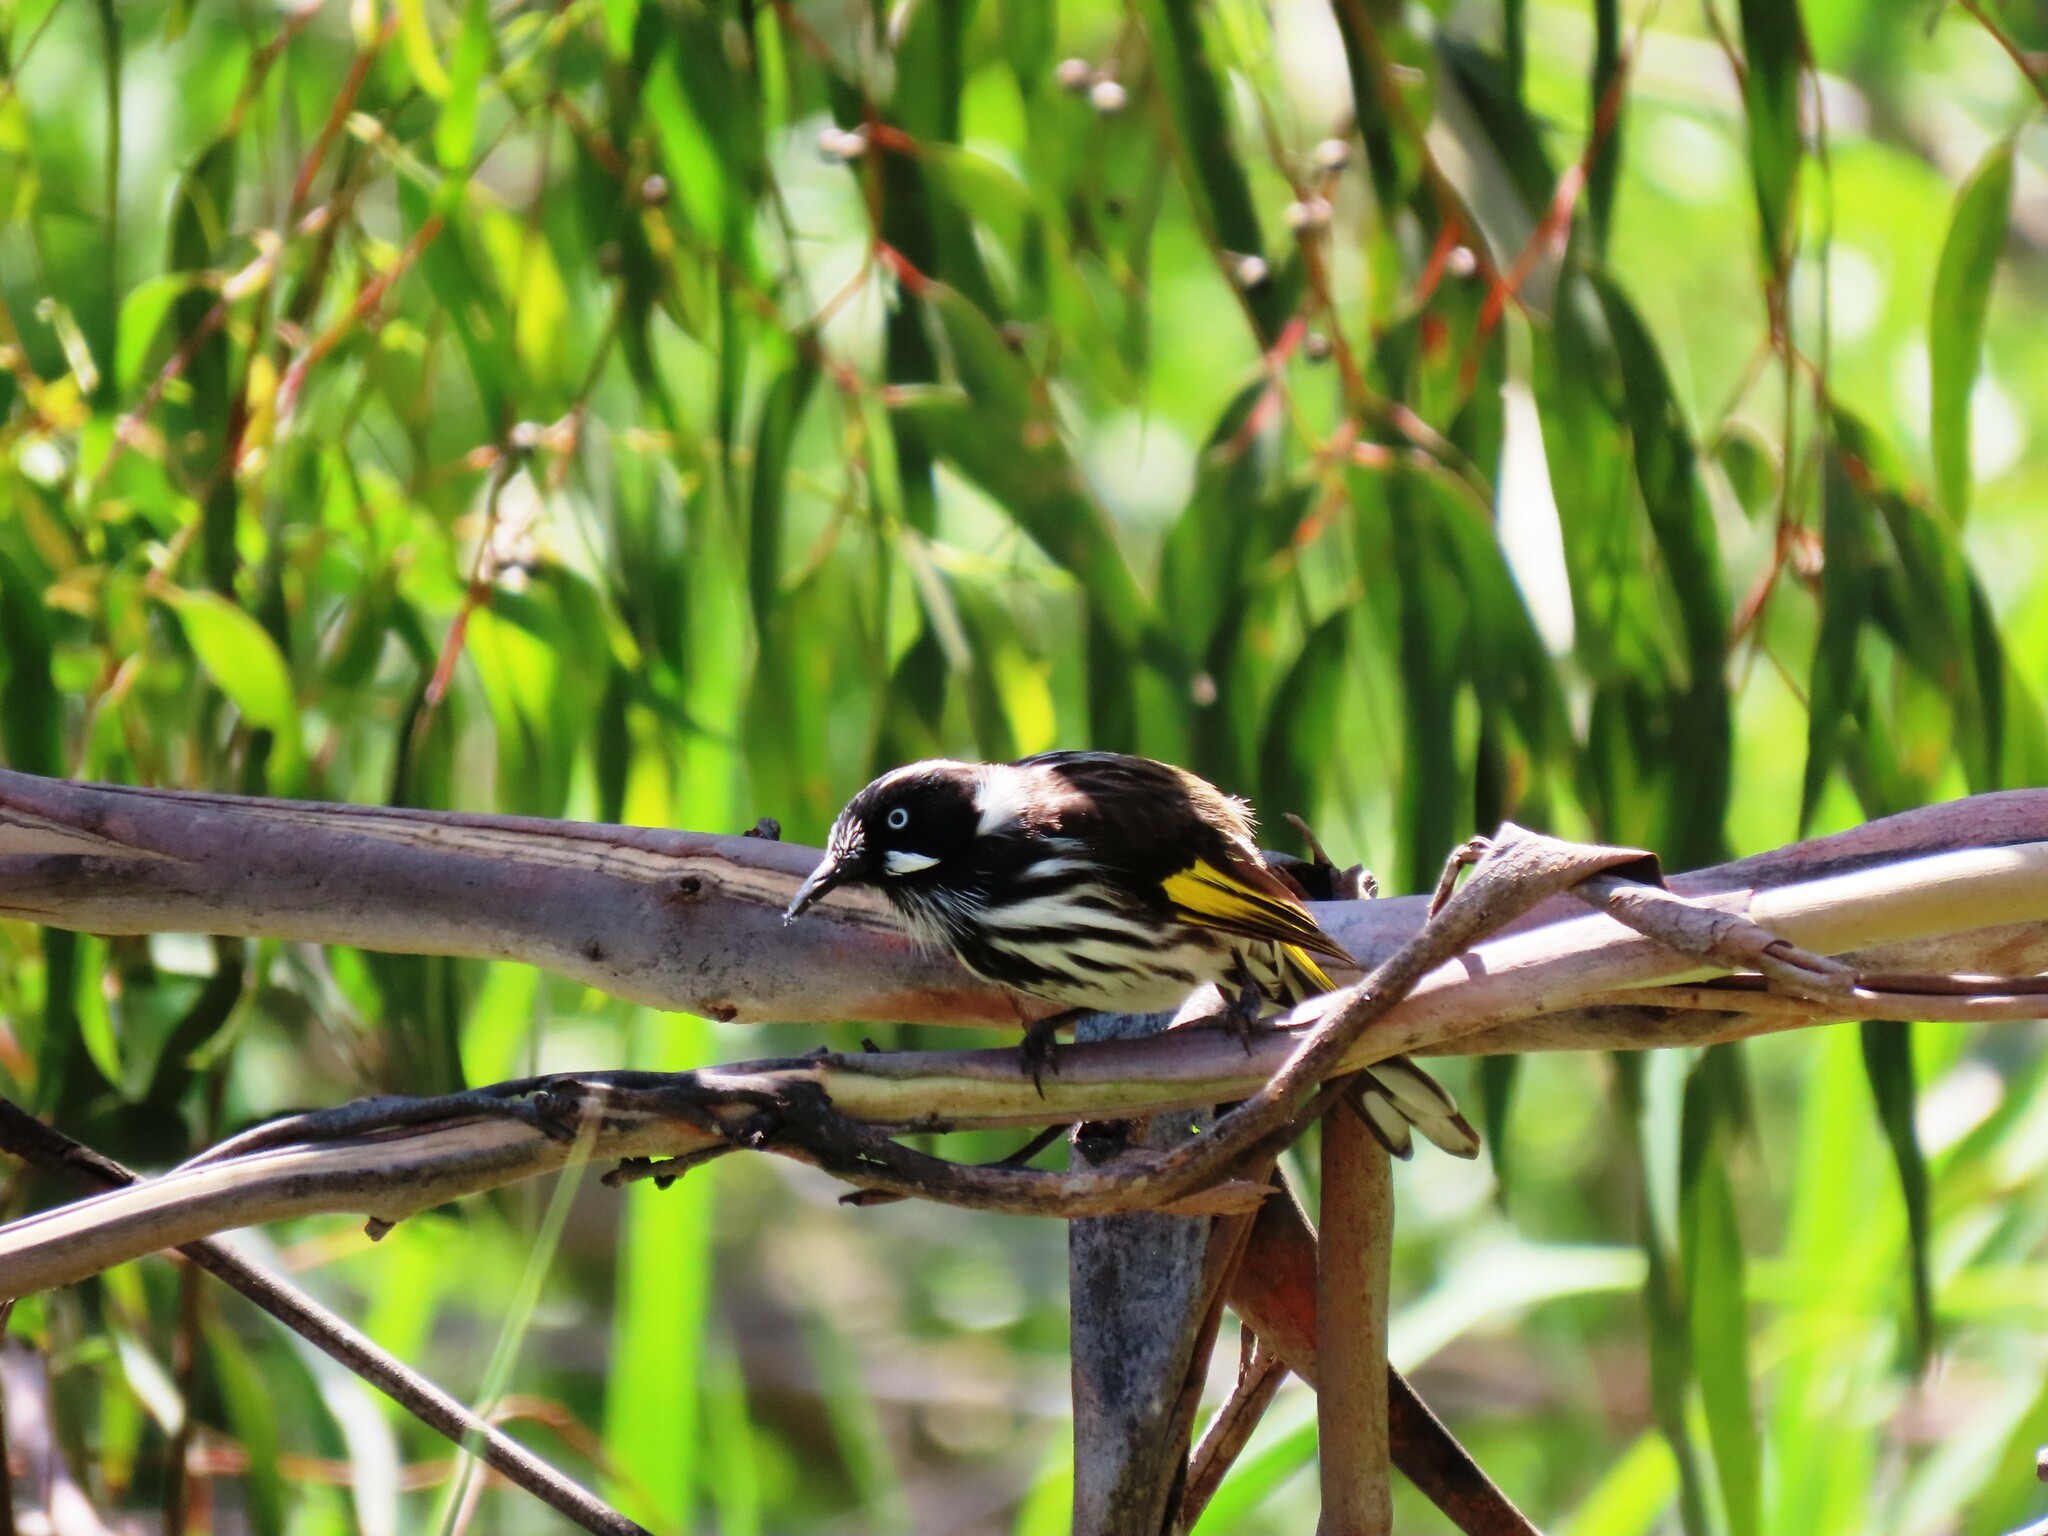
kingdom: Animalia
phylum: Chordata
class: Aves
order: Passeriformes
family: Meliphagidae
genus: Phylidonyris
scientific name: Phylidonyris novaehollandiae
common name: New holland honeyeater
